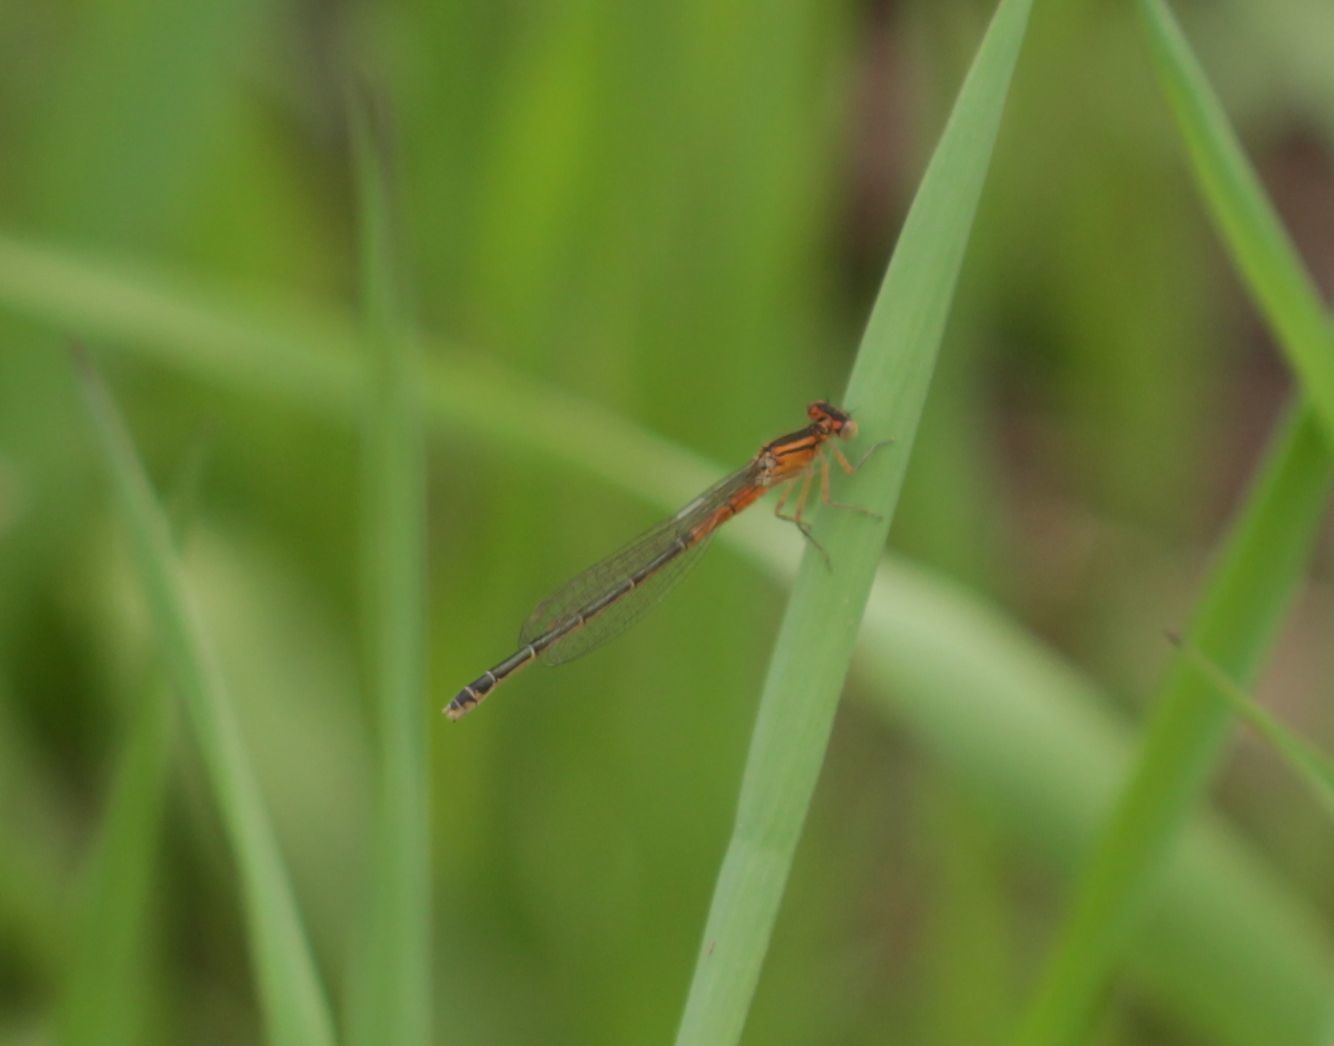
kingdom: Animalia
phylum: Arthropoda
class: Insecta
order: Odonata
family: Coenagrionidae
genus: Ischnura
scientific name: Ischnura verticalis
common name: Eastern forktail
